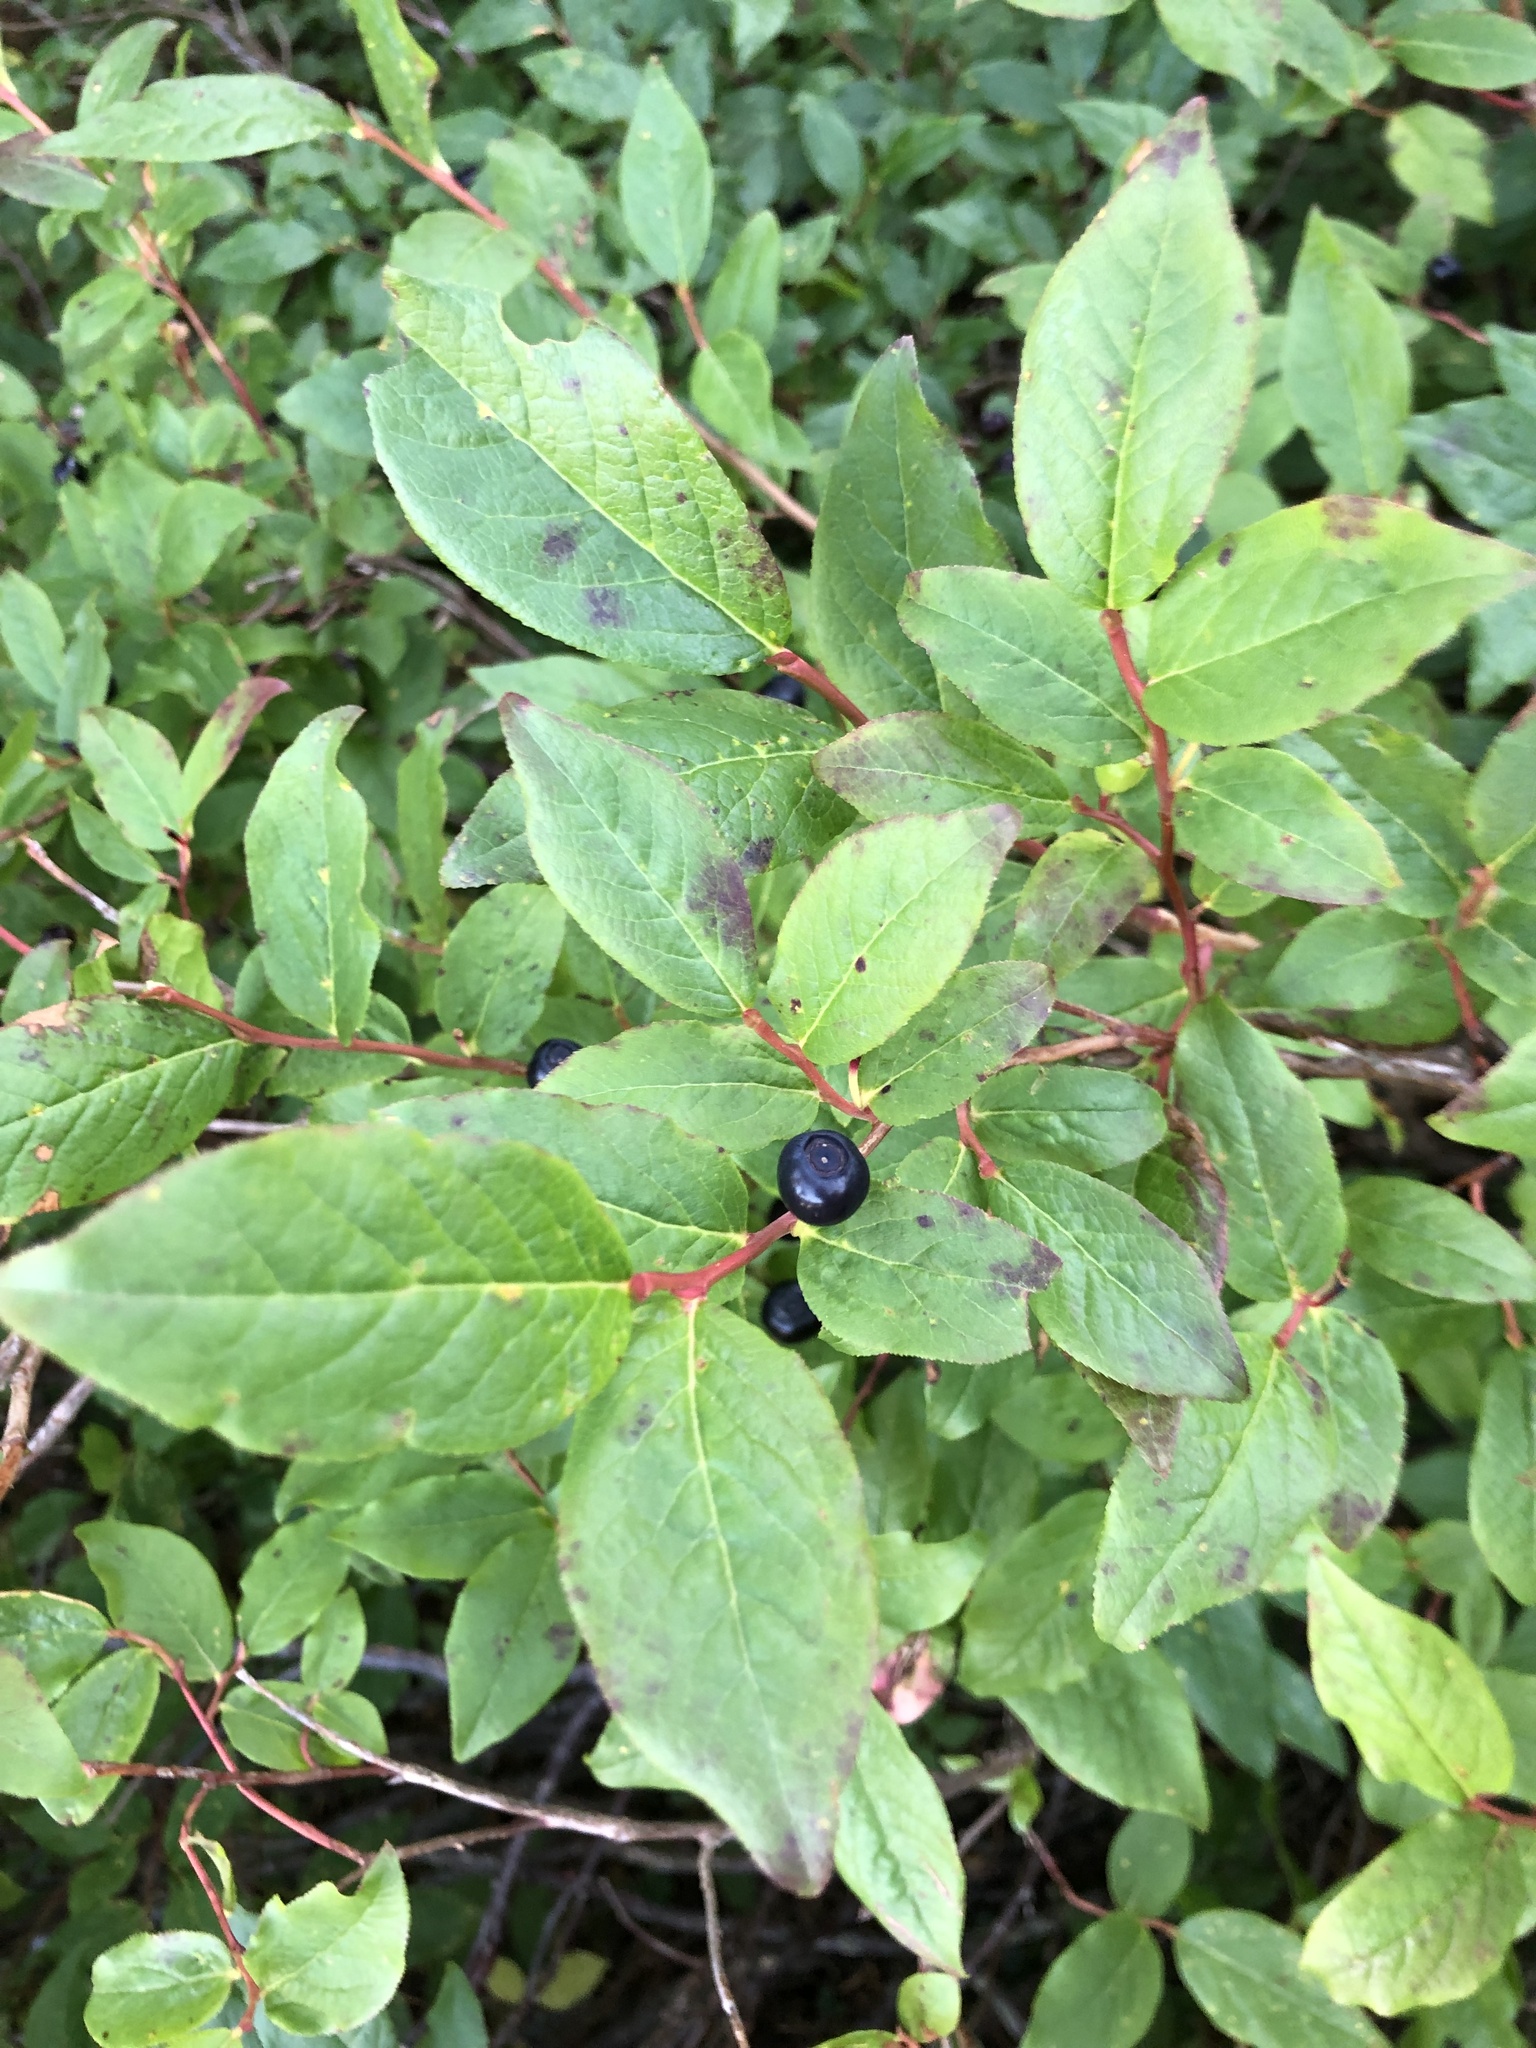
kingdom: Plantae
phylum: Tracheophyta
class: Magnoliopsida
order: Ericales
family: Ericaceae
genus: Vaccinium
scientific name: Vaccinium membranaceum
